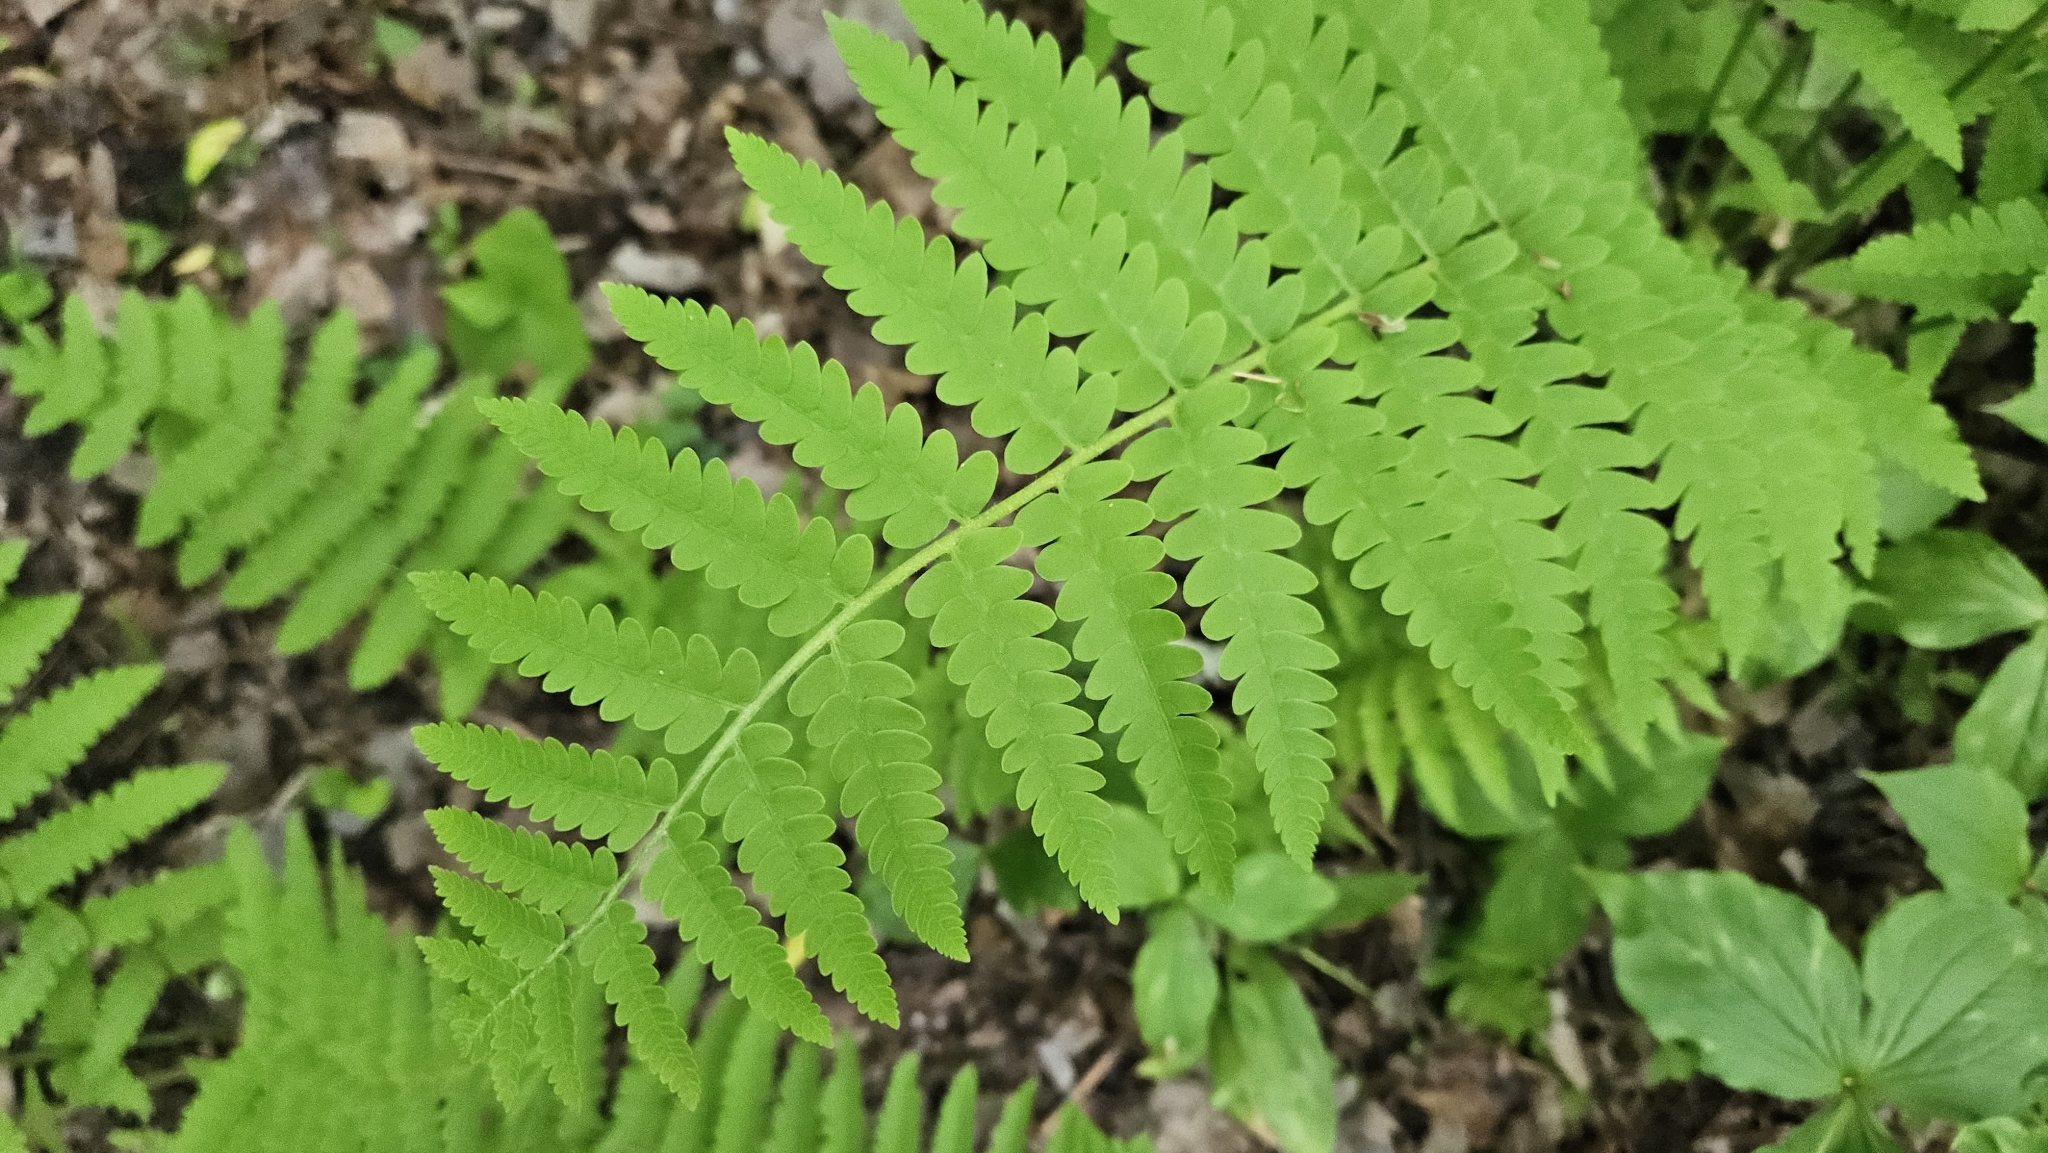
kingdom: Plantae
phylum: Tracheophyta
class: Polypodiopsida
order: Osmundales
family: Osmundaceae
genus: Claytosmunda
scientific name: Claytosmunda claytoniana
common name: Clayton's fern
